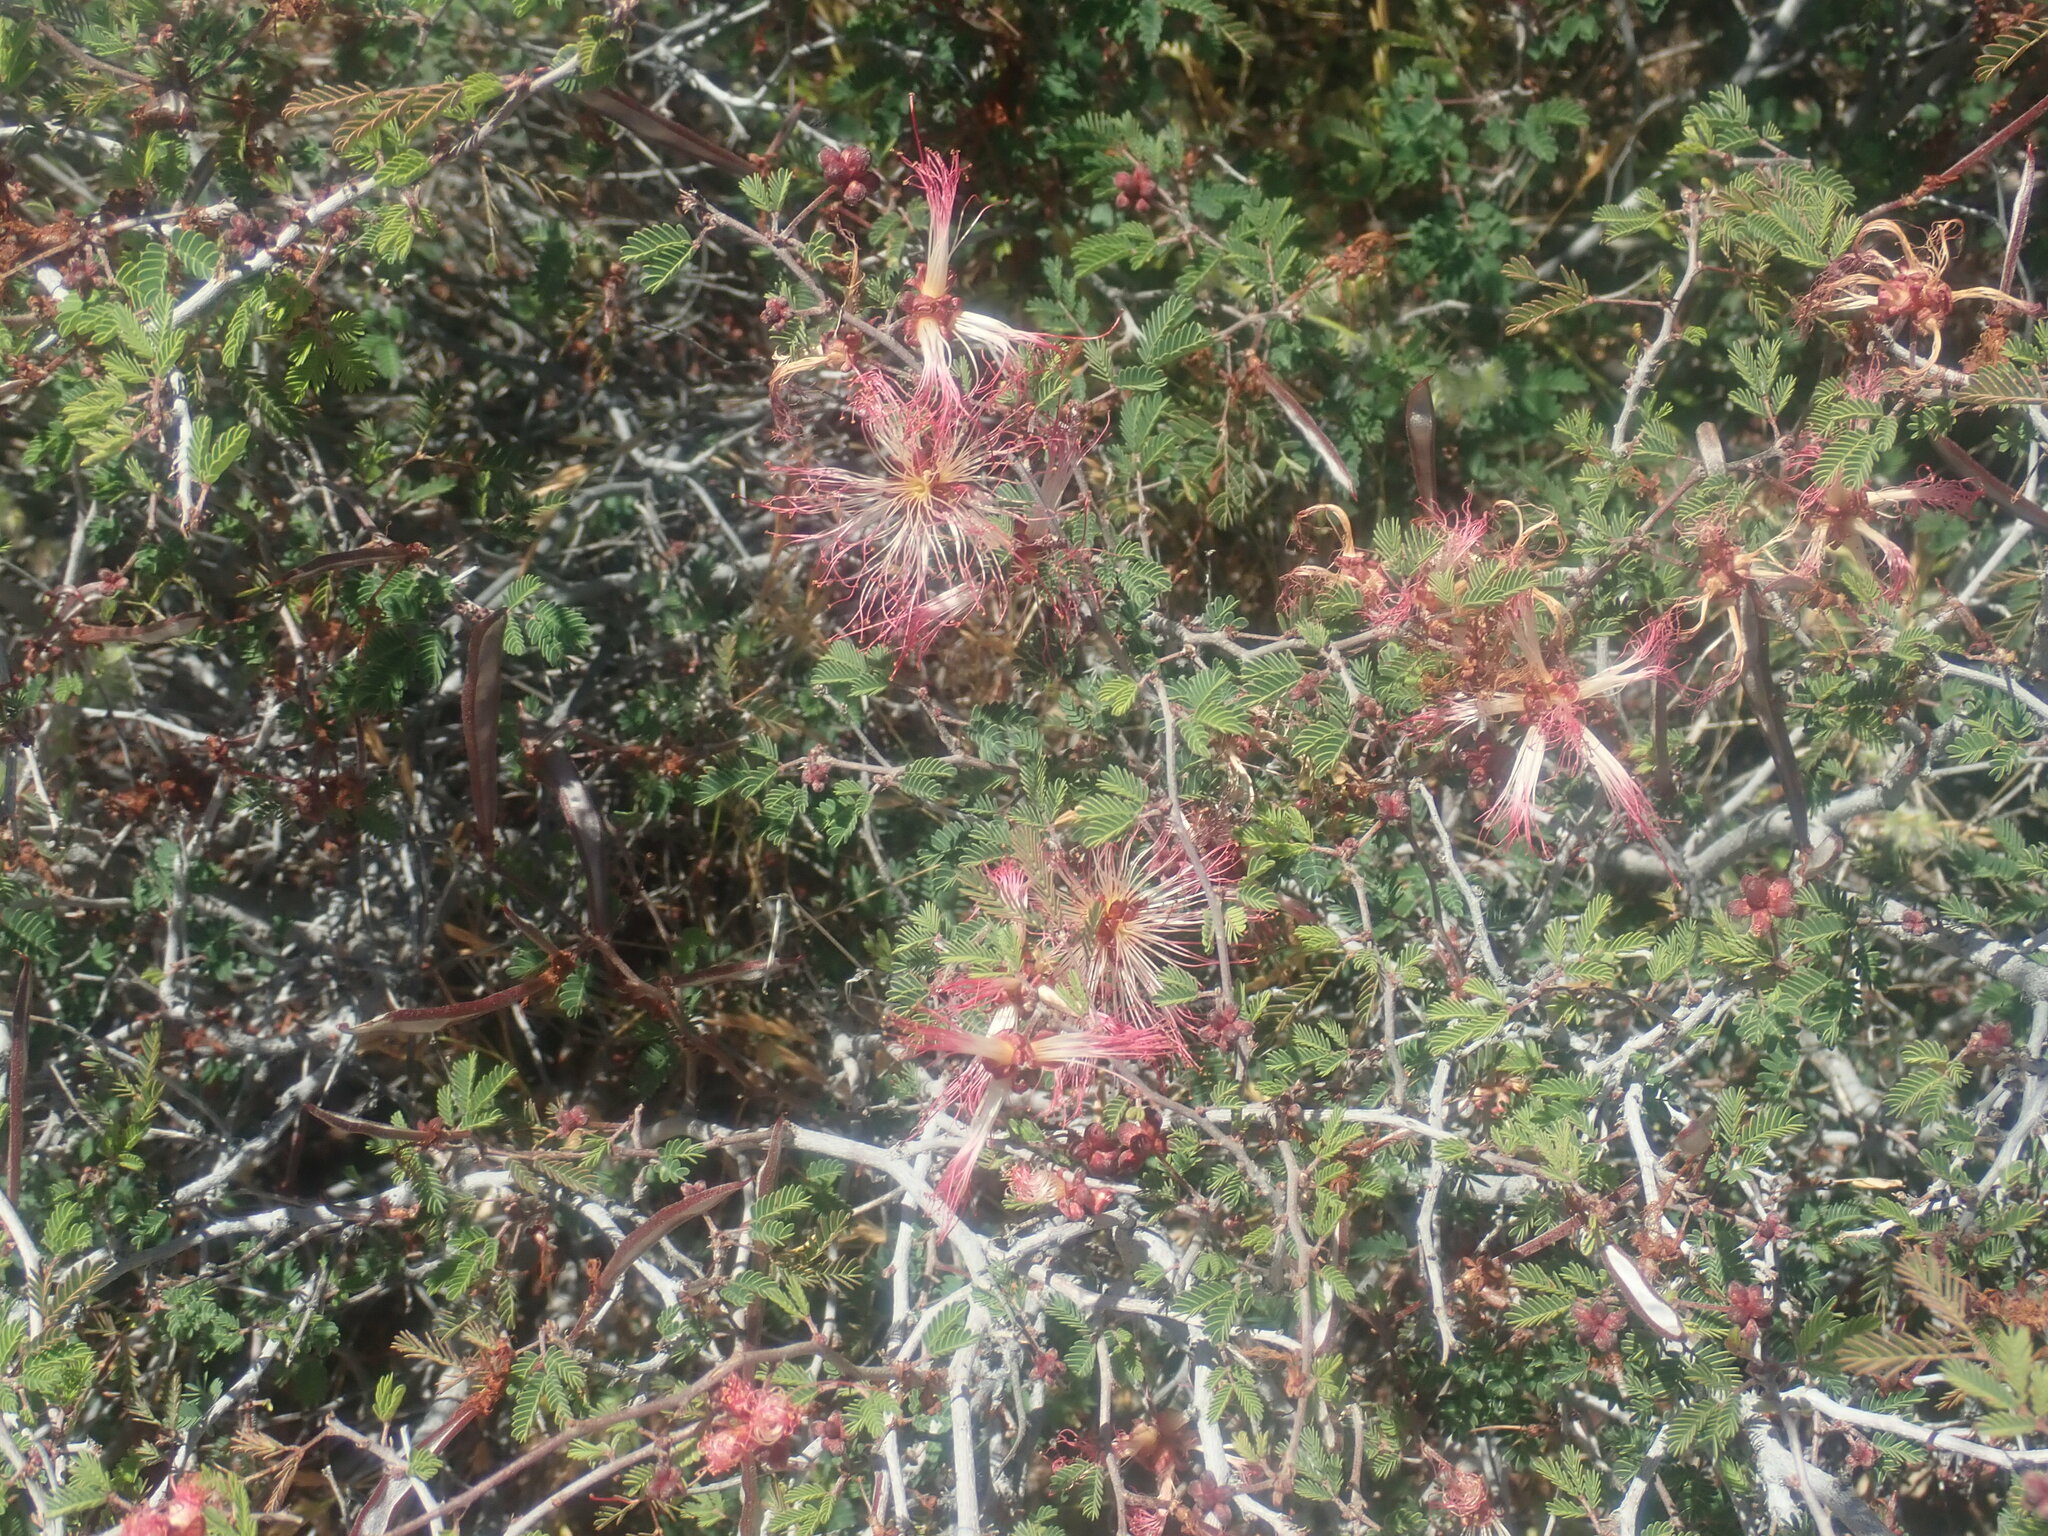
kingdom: Plantae
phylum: Tracheophyta
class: Magnoliopsida
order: Fabales
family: Fabaceae
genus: Calliandra
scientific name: Calliandra eriophylla
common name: Fairy-duster
